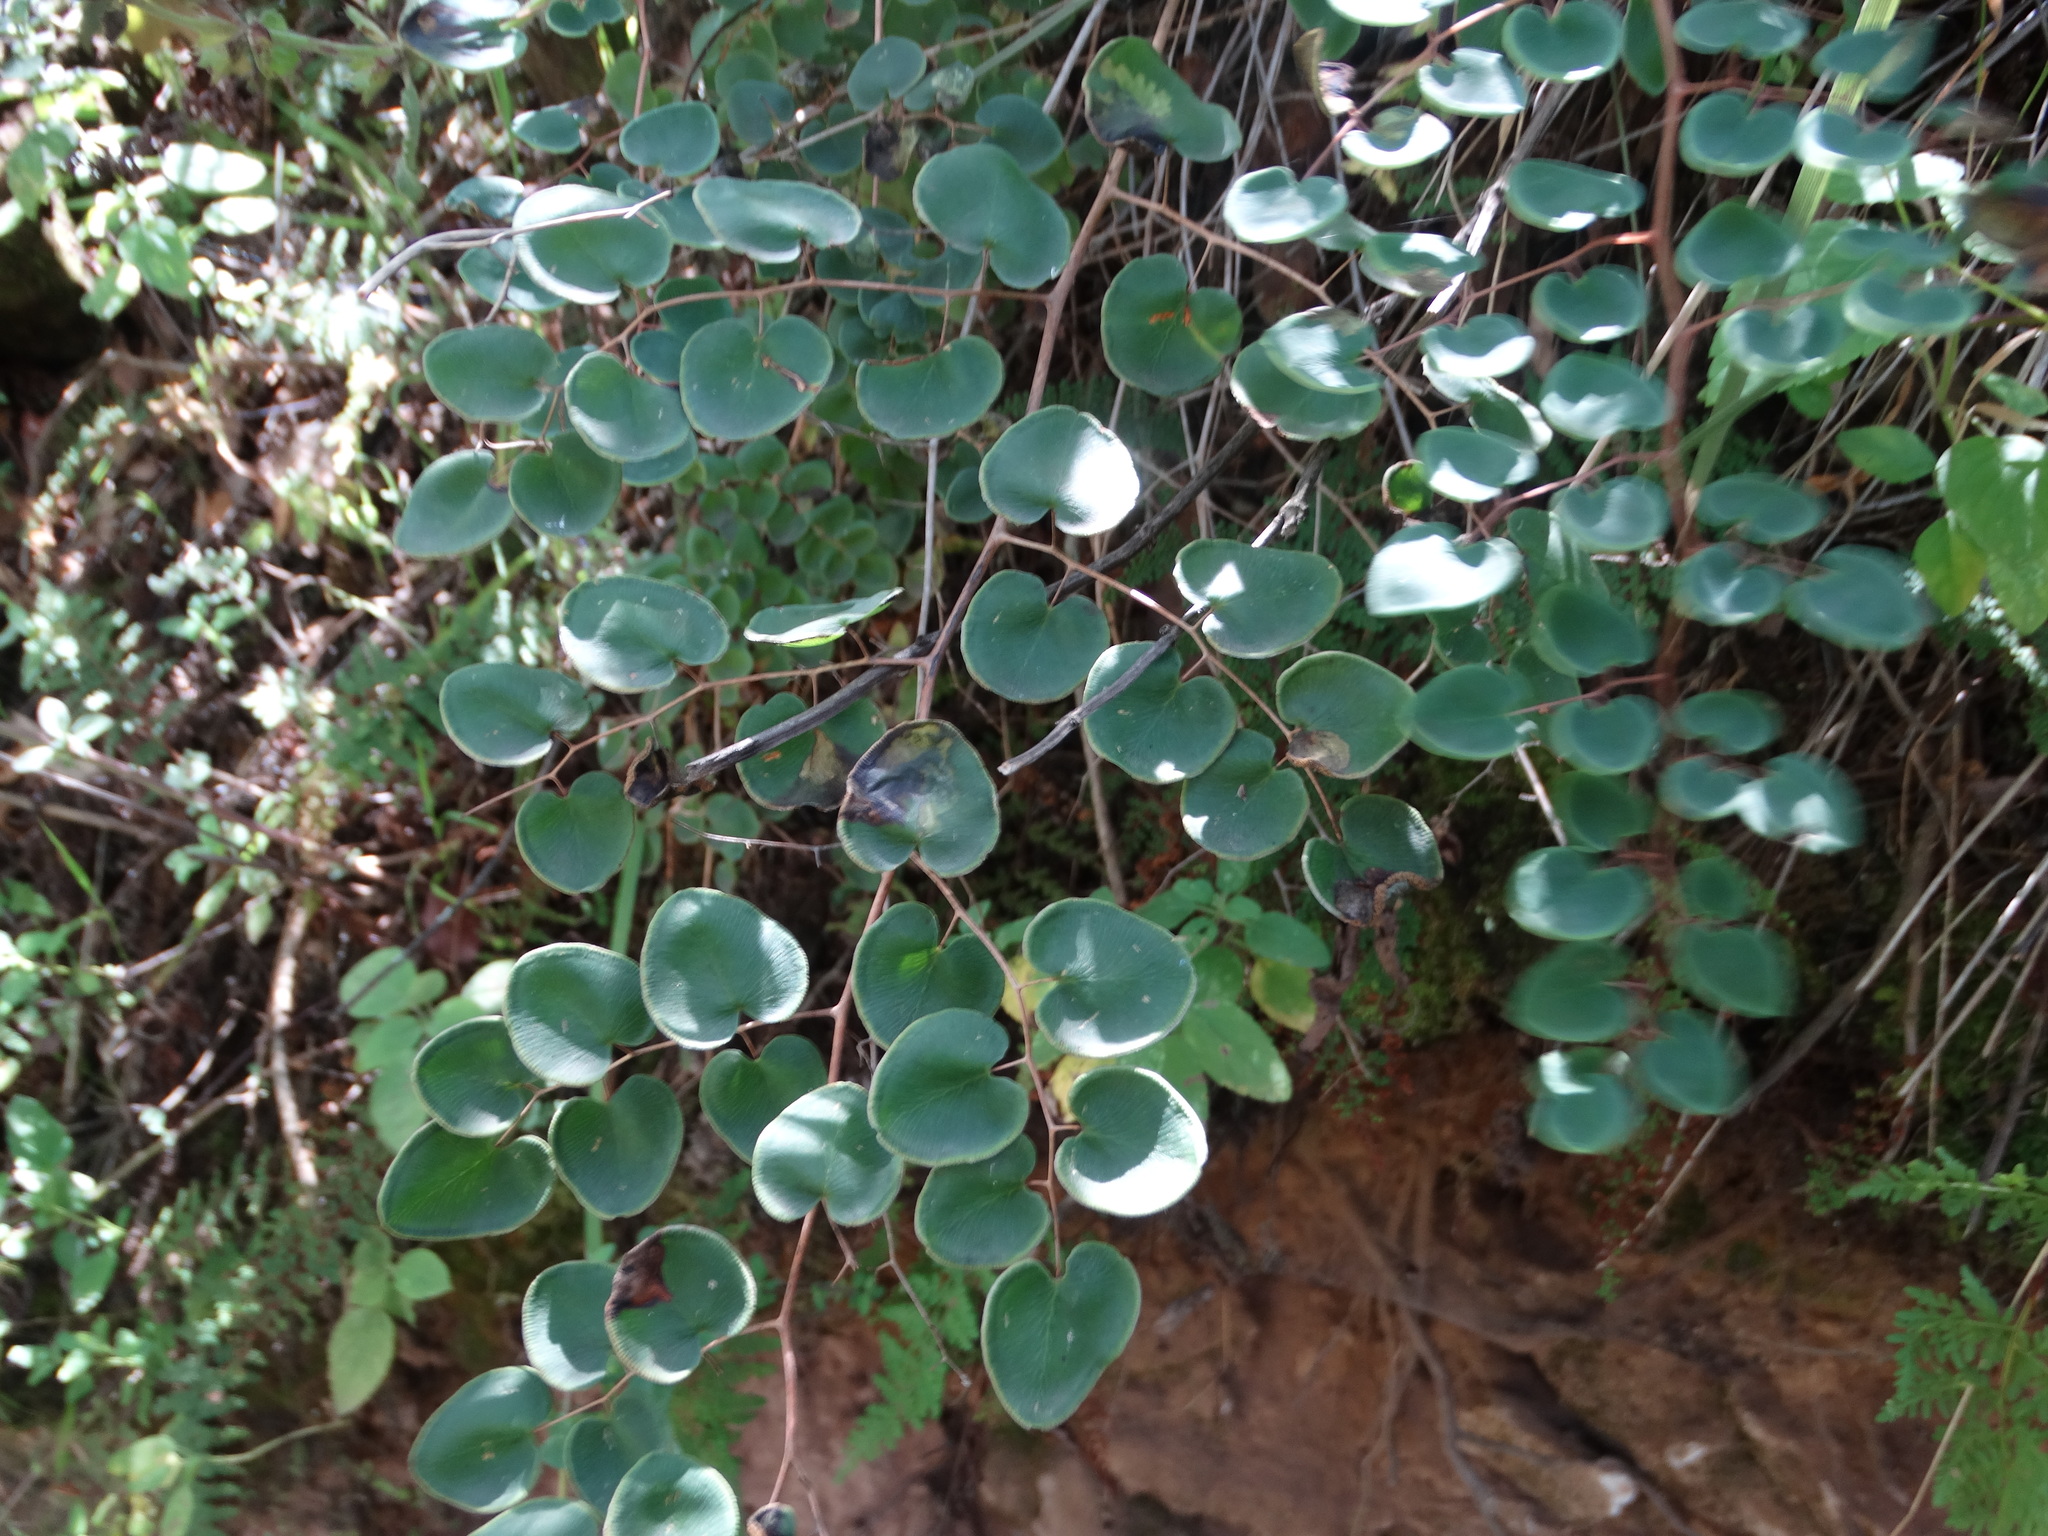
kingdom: Plantae
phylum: Tracheophyta
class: Polypodiopsida
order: Polypodiales
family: Pteridaceae
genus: Pellaea
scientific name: Pellaea cordifolia
